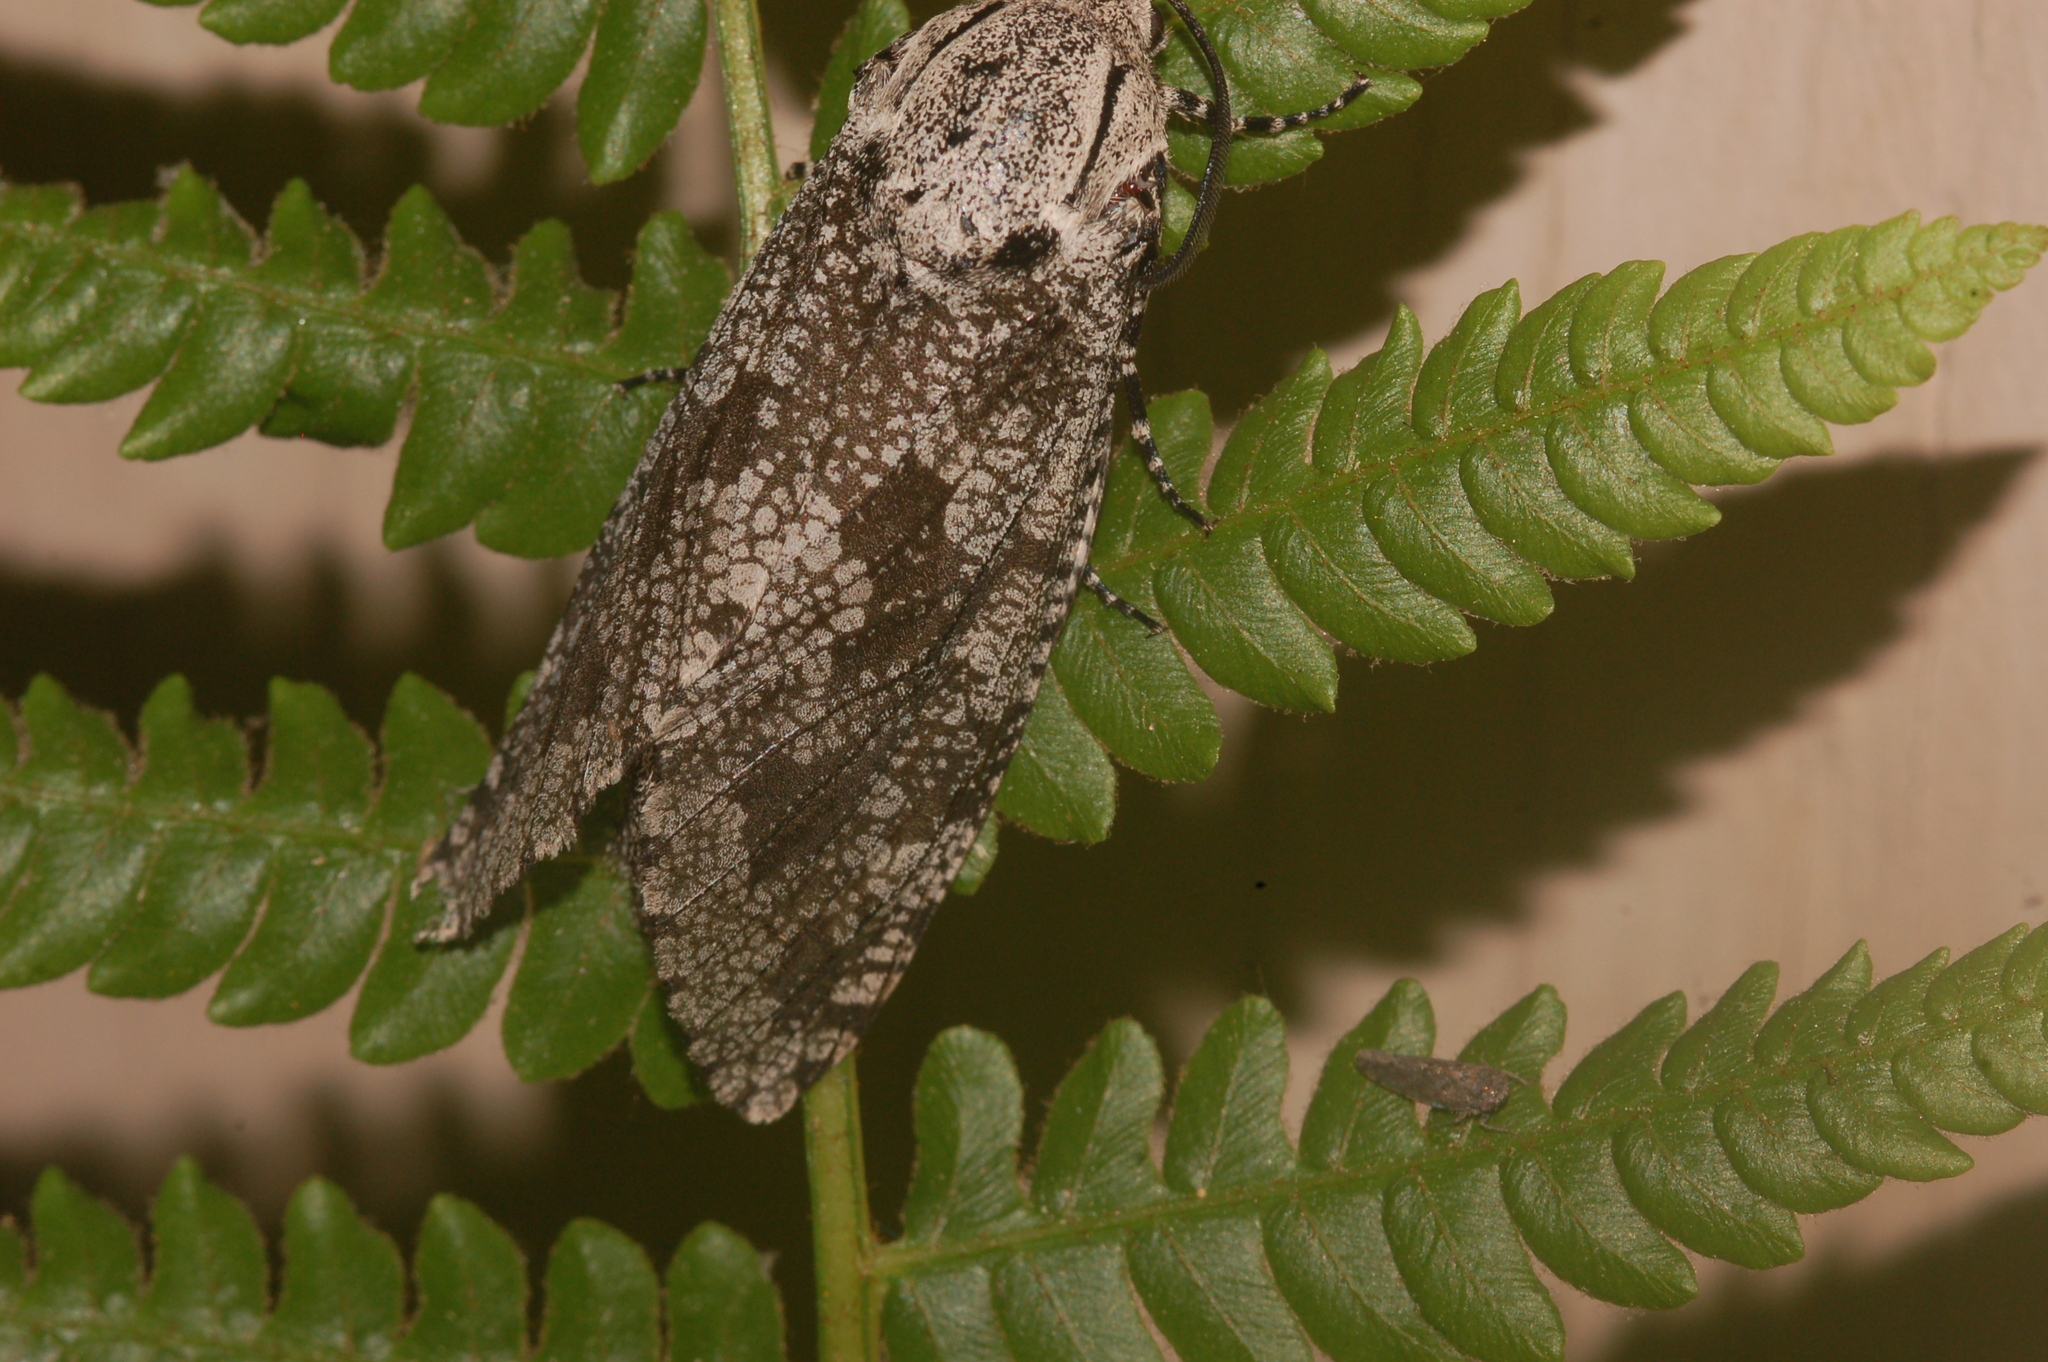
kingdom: Animalia
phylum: Arthropoda
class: Insecta
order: Lepidoptera
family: Cossidae
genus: Prionoxystus
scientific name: Prionoxystus robiniae
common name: Carpenterworm
